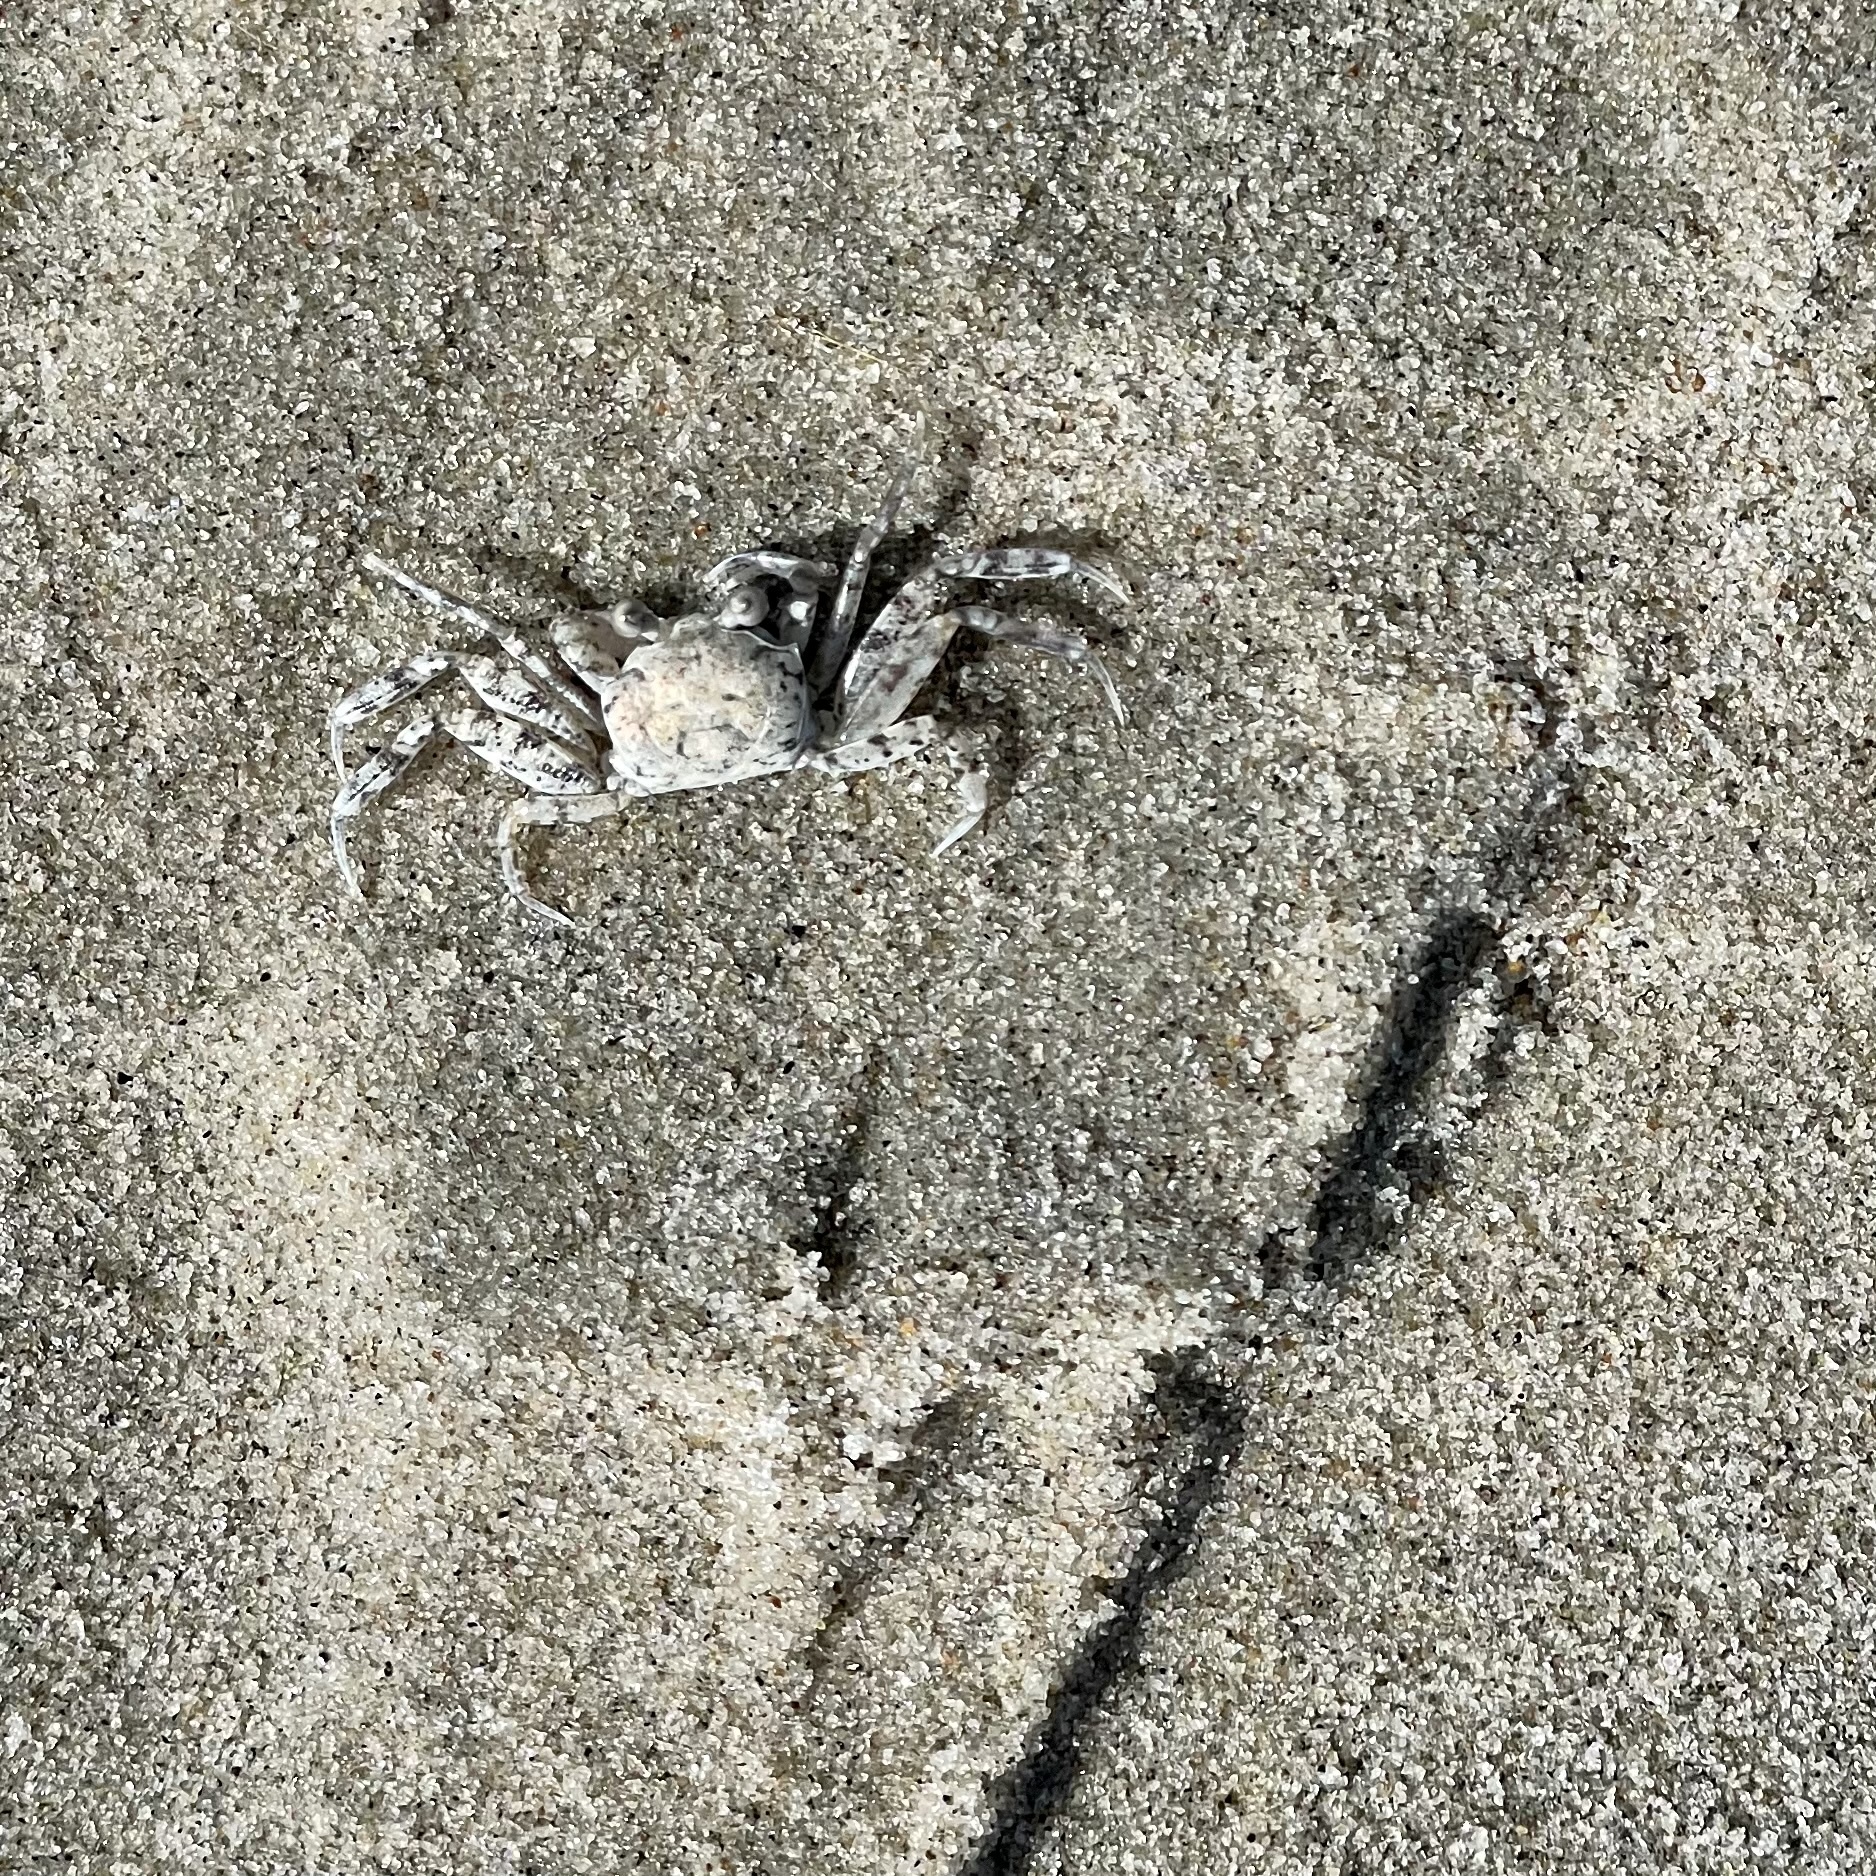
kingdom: Animalia
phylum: Arthropoda
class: Malacostraca
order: Decapoda
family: Ocypodidae
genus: Ocypode
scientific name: Ocypode quadrata
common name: Ghost crab
